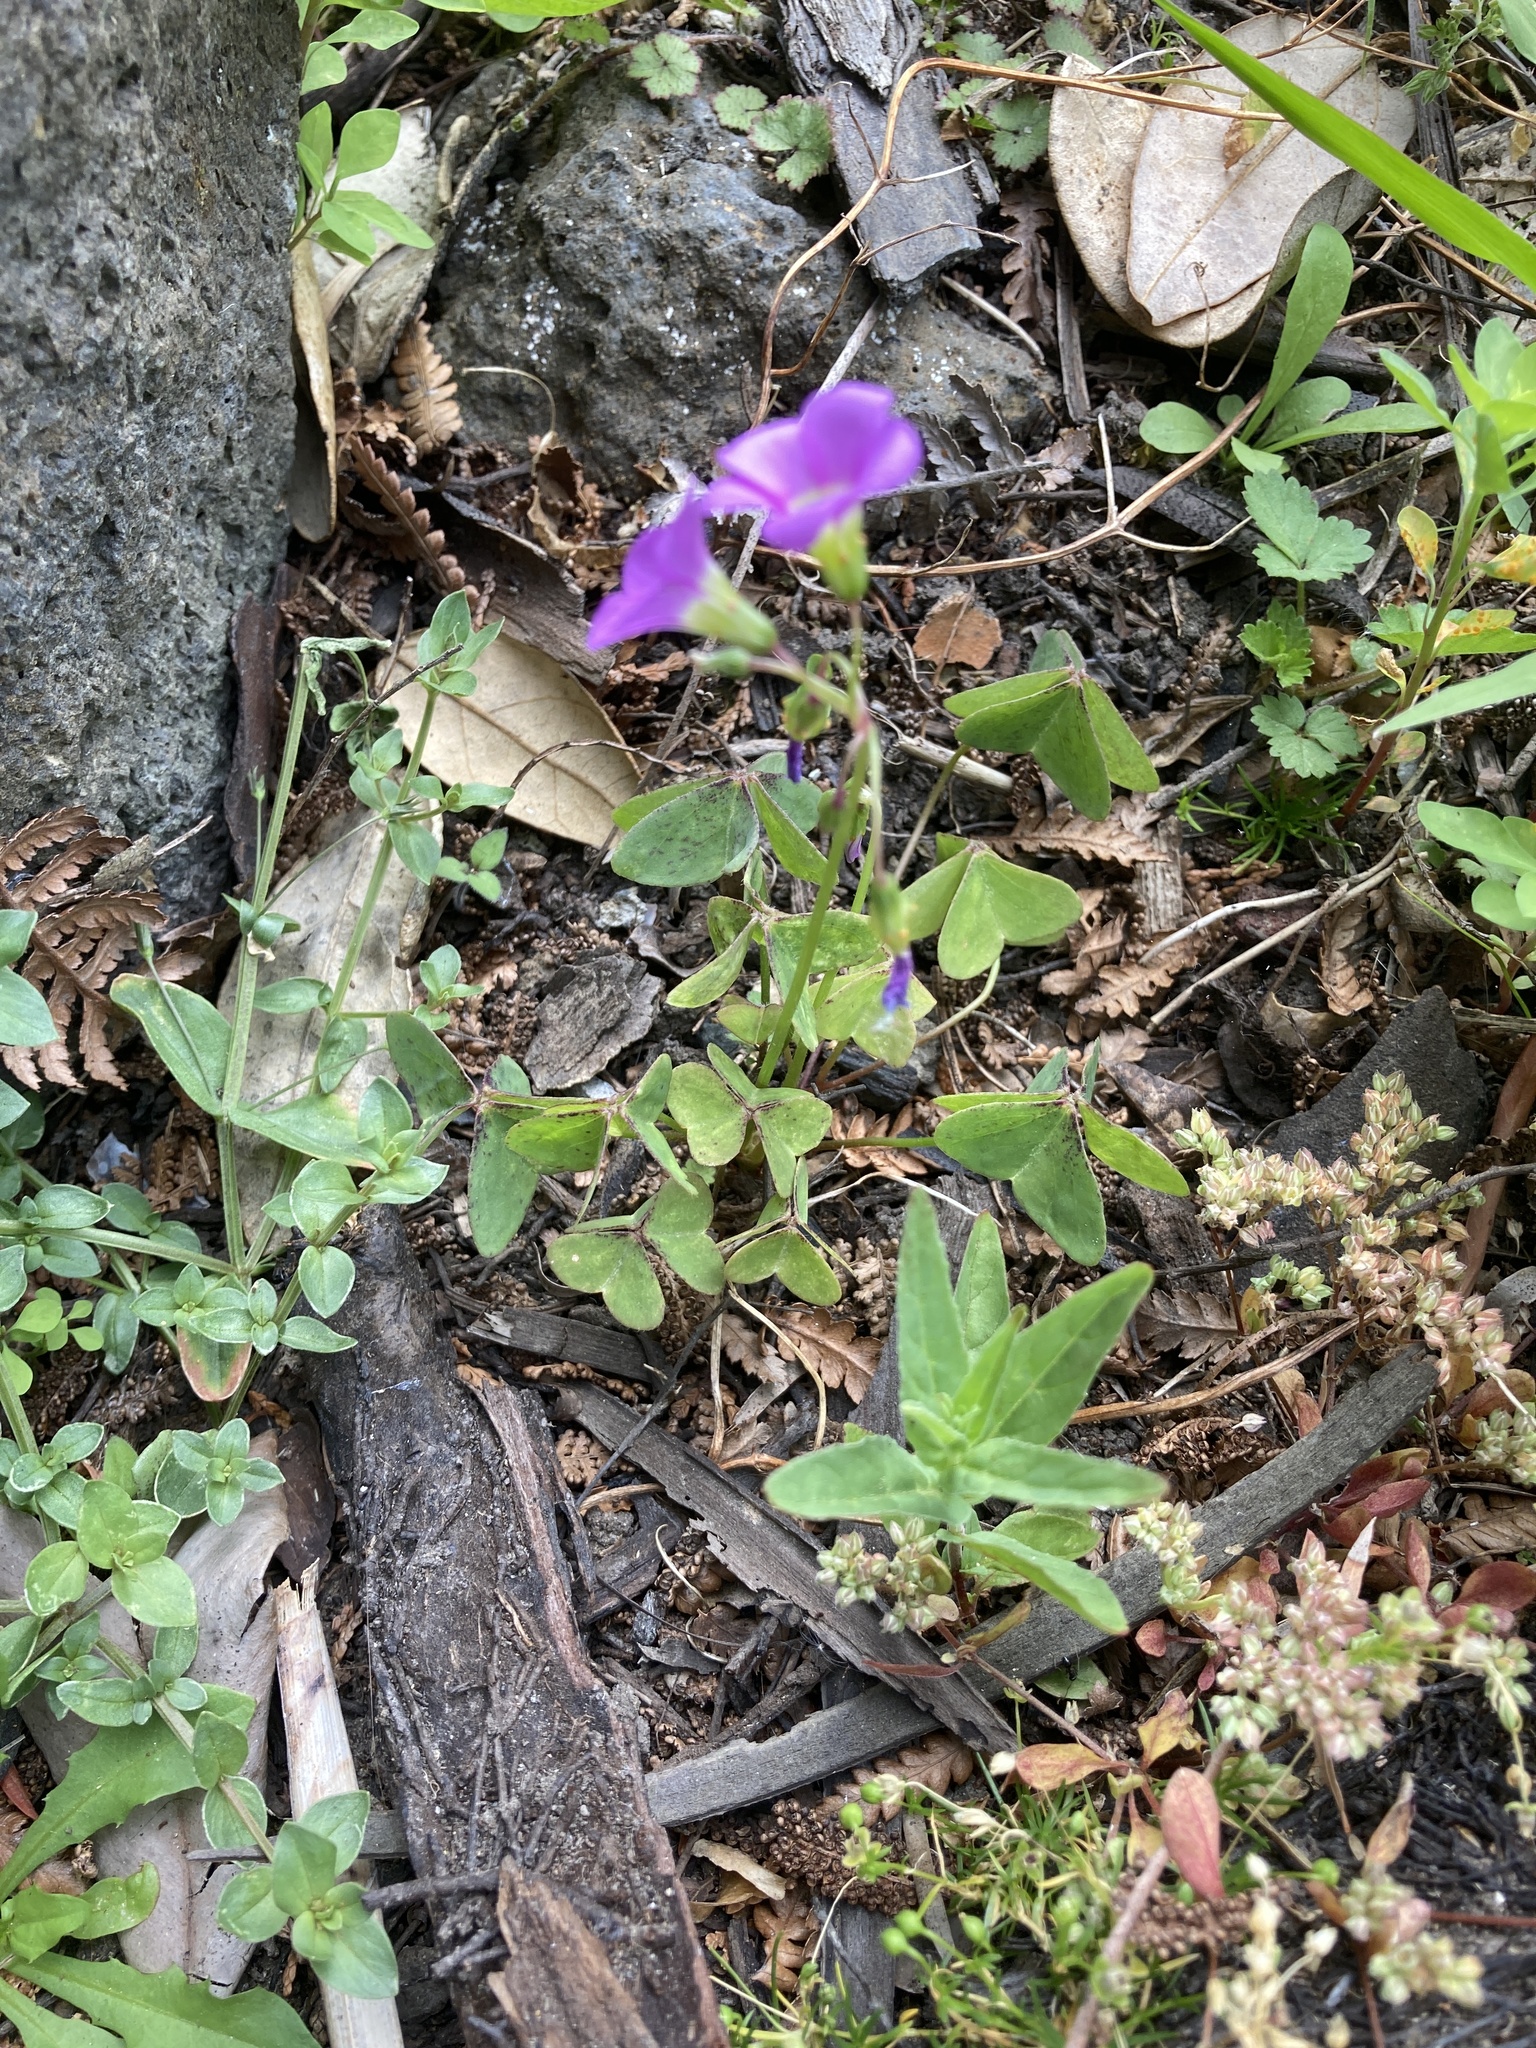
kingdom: Plantae
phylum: Tracheophyta
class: Magnoliopsida
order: Oxalidales
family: Oxalidaceae
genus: Oxalis
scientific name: Oxalis latifolia
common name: Garden pink-sorrel
